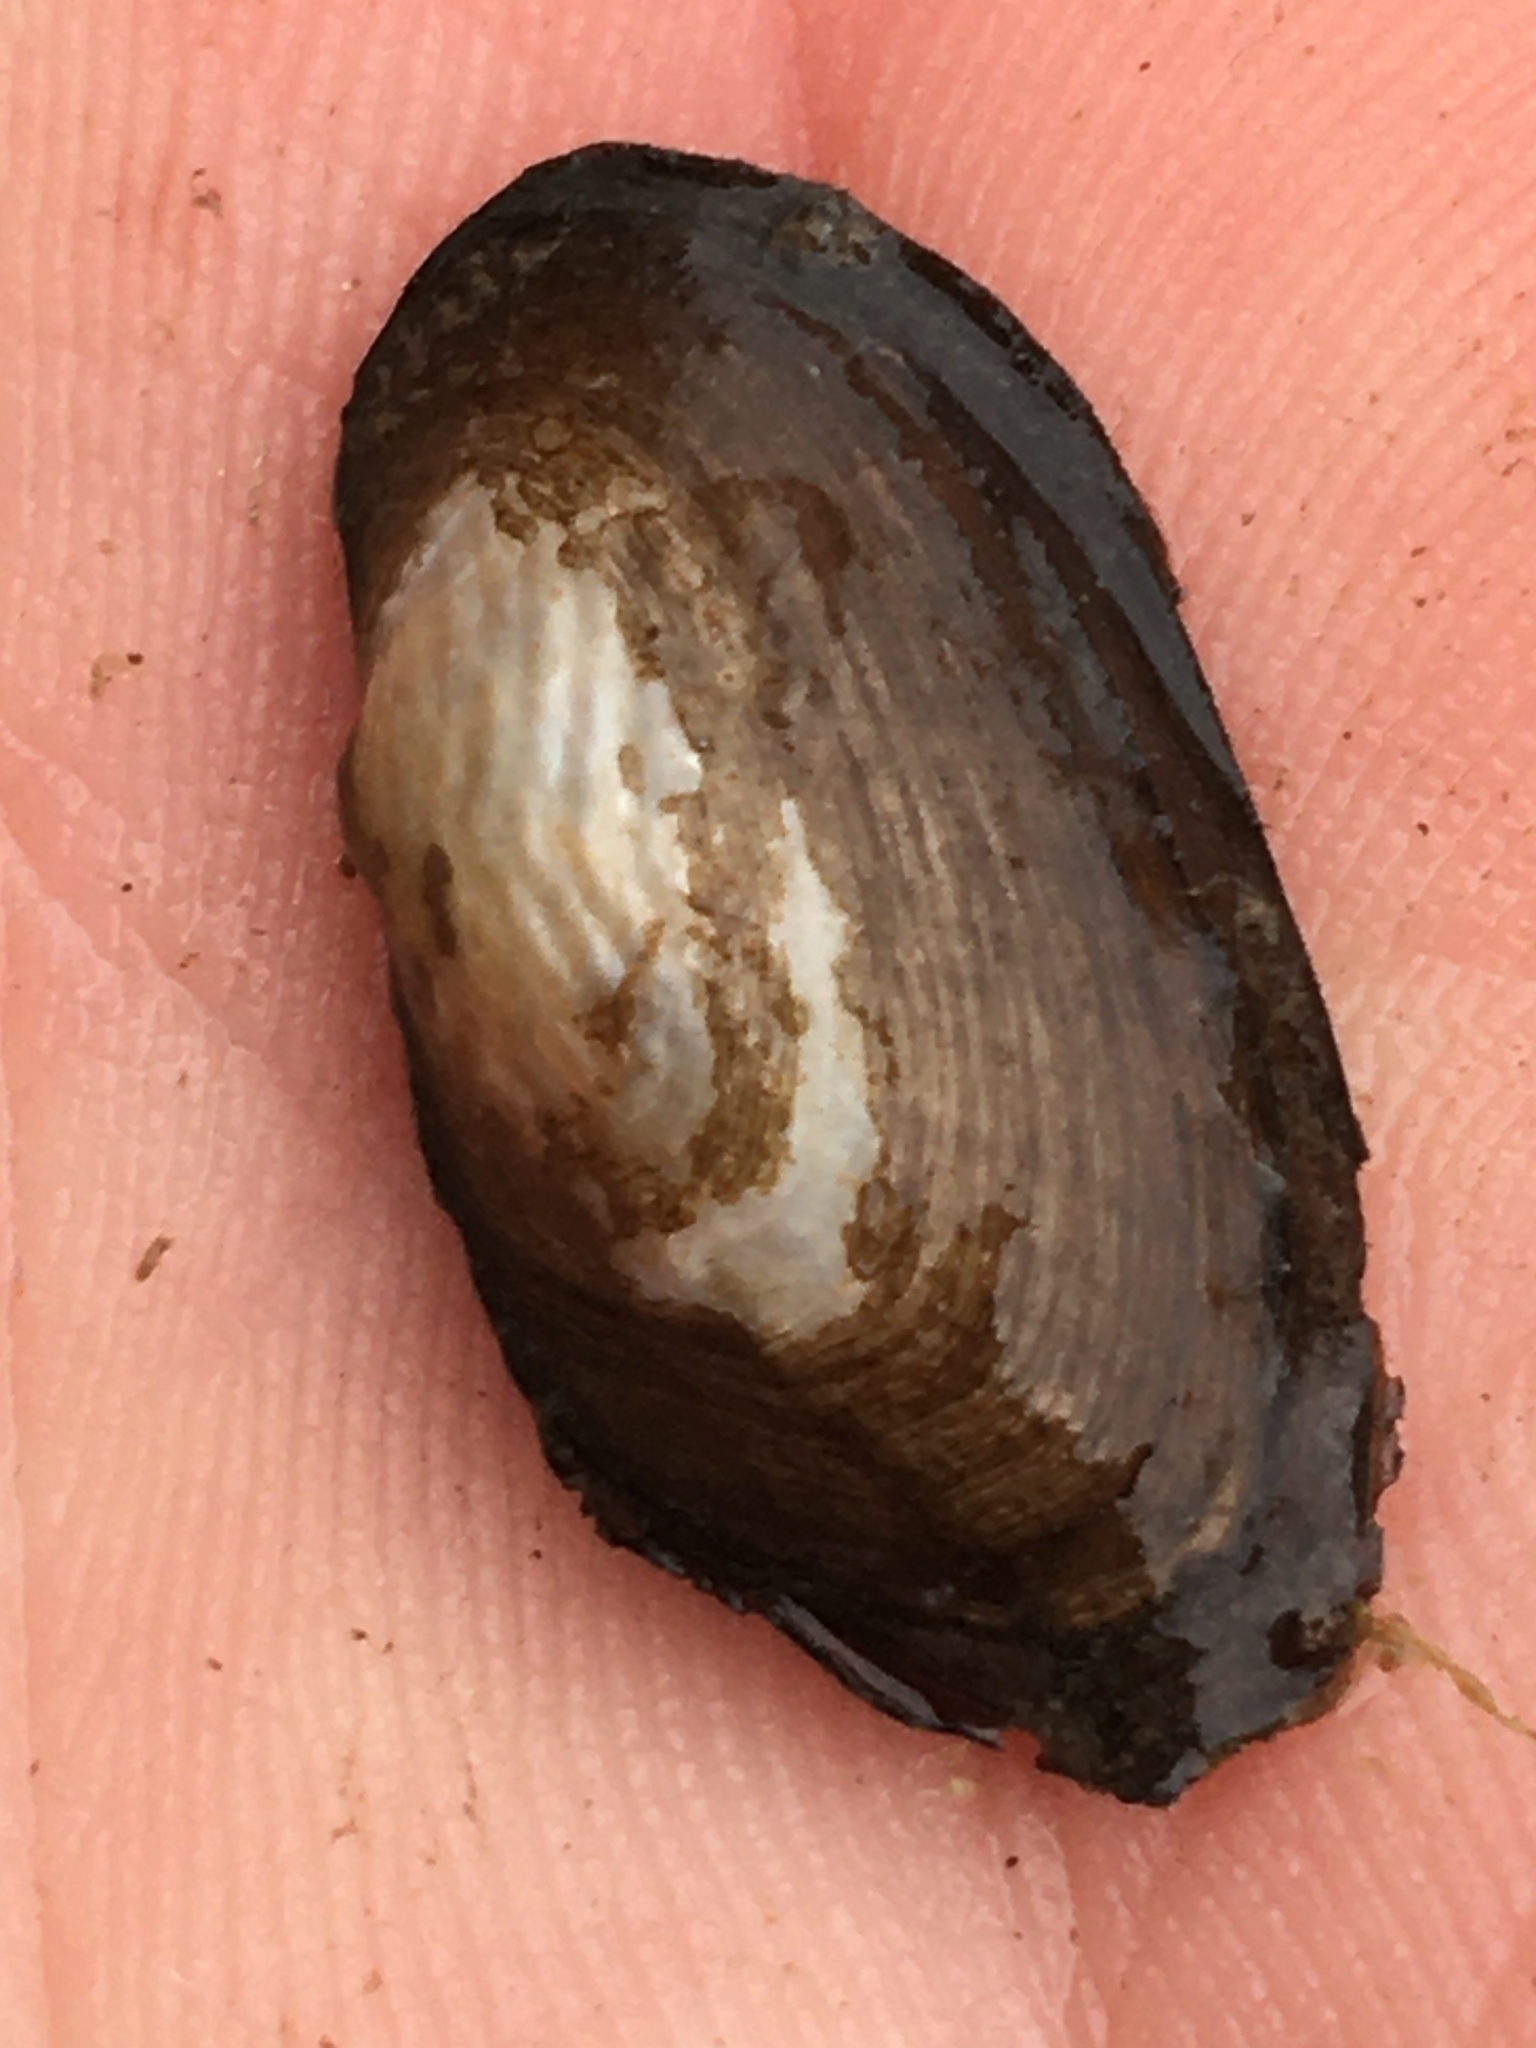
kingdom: Animalia
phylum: Mollusca
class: Bivalvia
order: Unionida
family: Unionidae
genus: Sagittunio
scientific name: Sagittunio subrostratus
